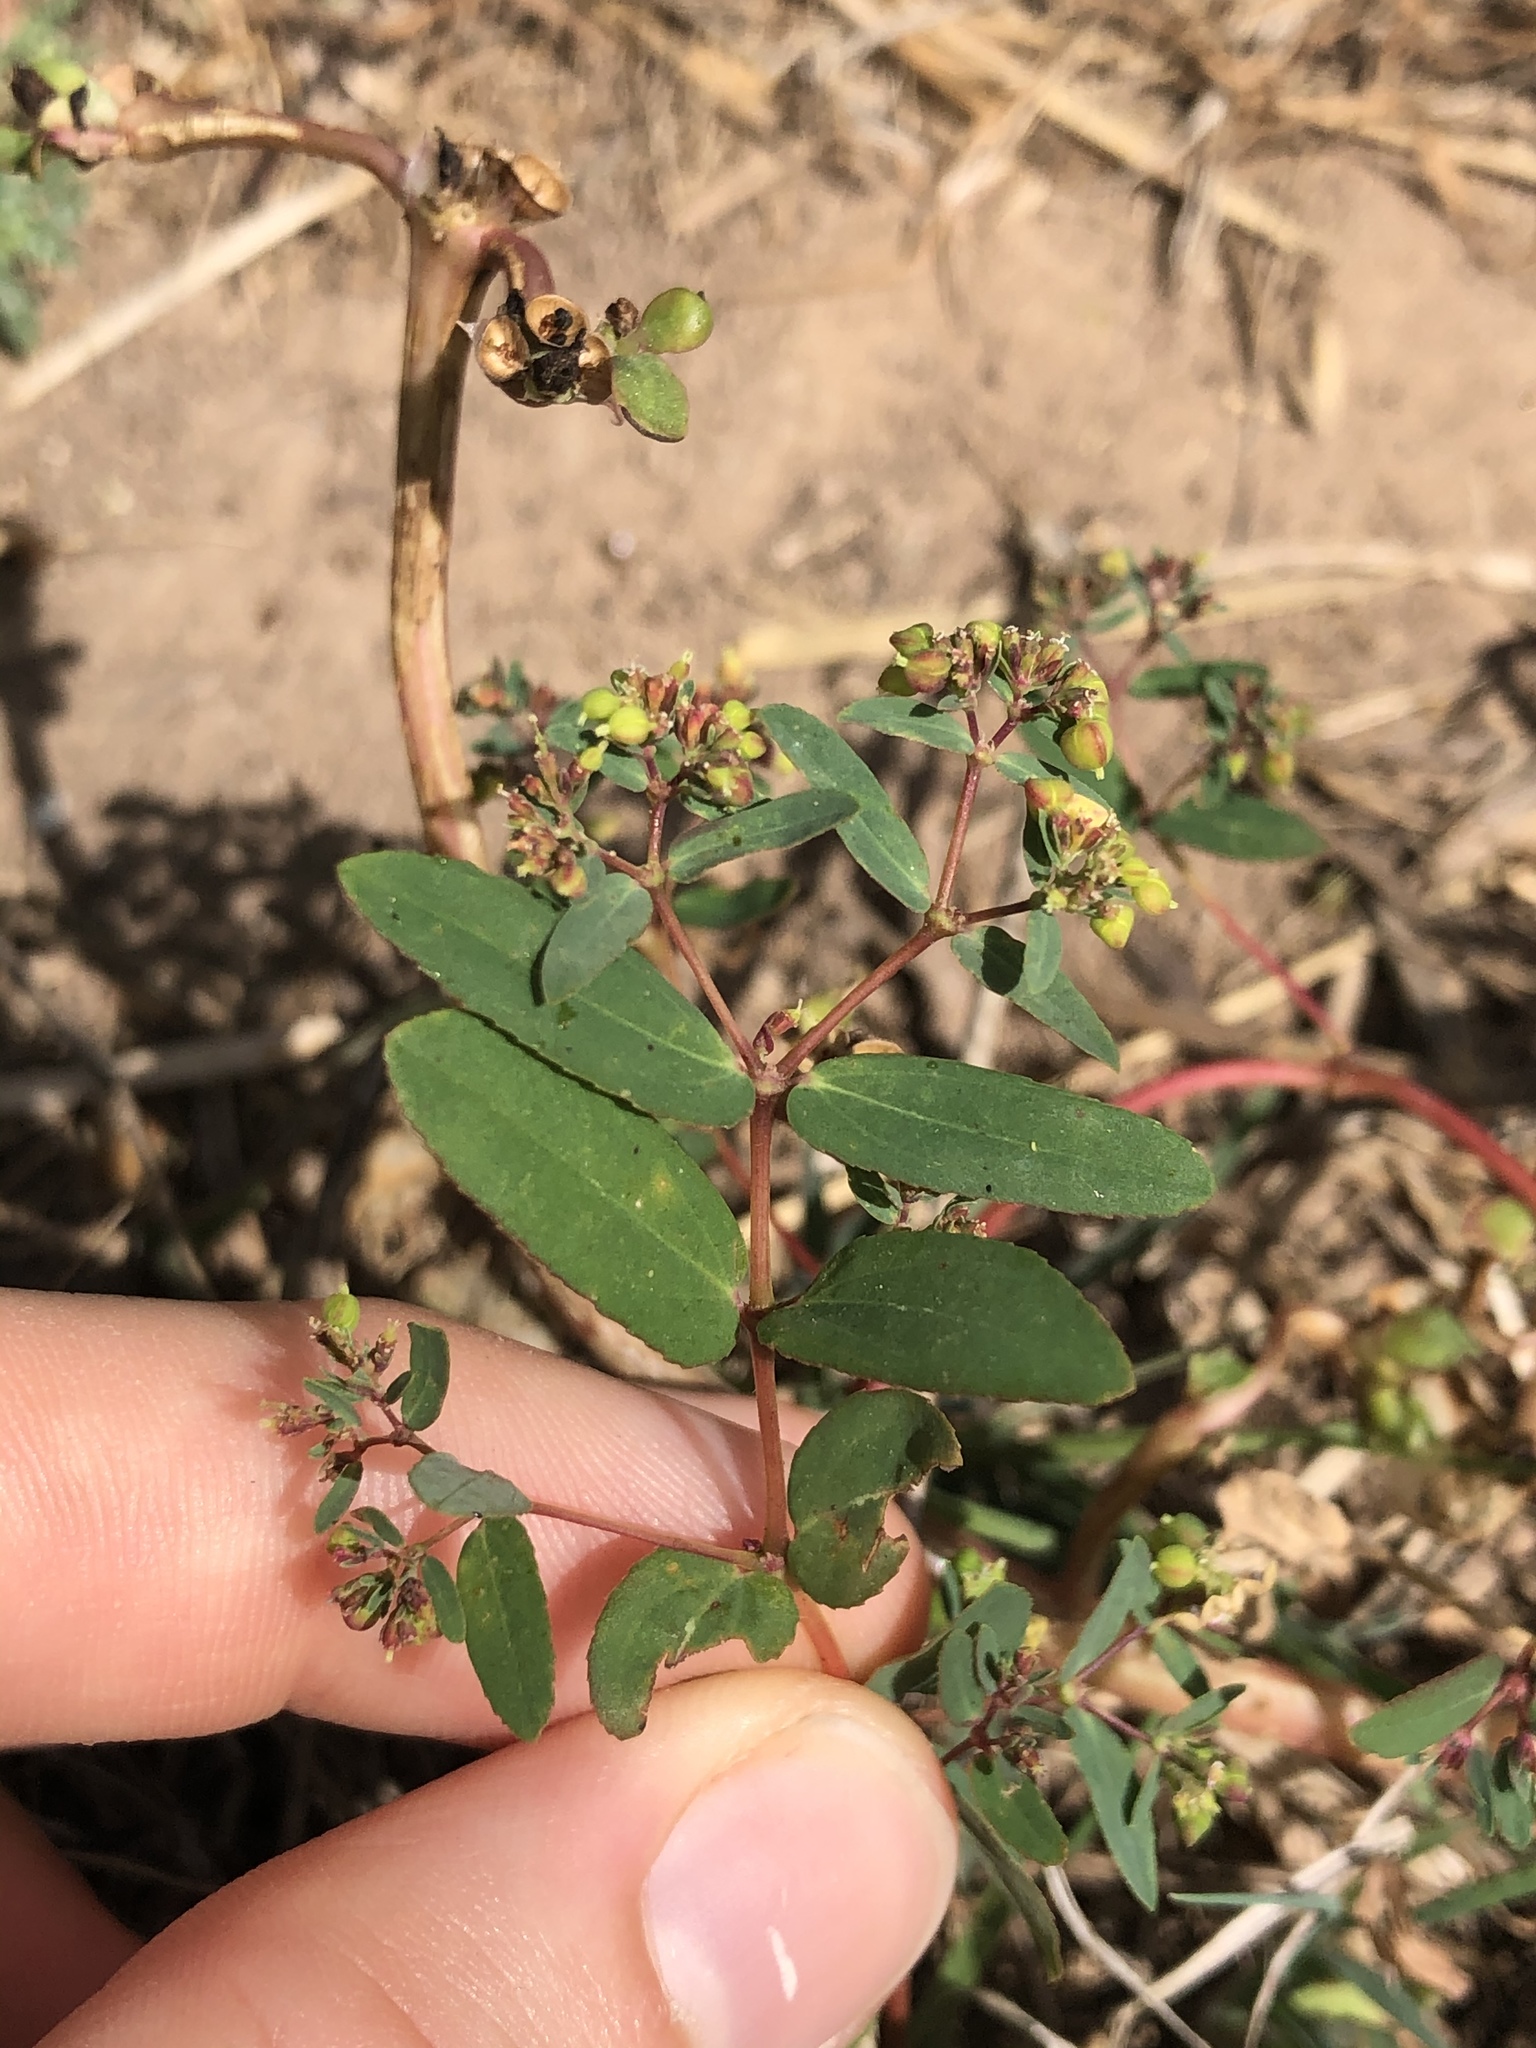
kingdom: Plantae
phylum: Tracheophyta
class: Magnoliopsida
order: Malpighiales
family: Euphorbiaceae
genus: Euphorbia
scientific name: Euphorbia nutans
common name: Eyebane
